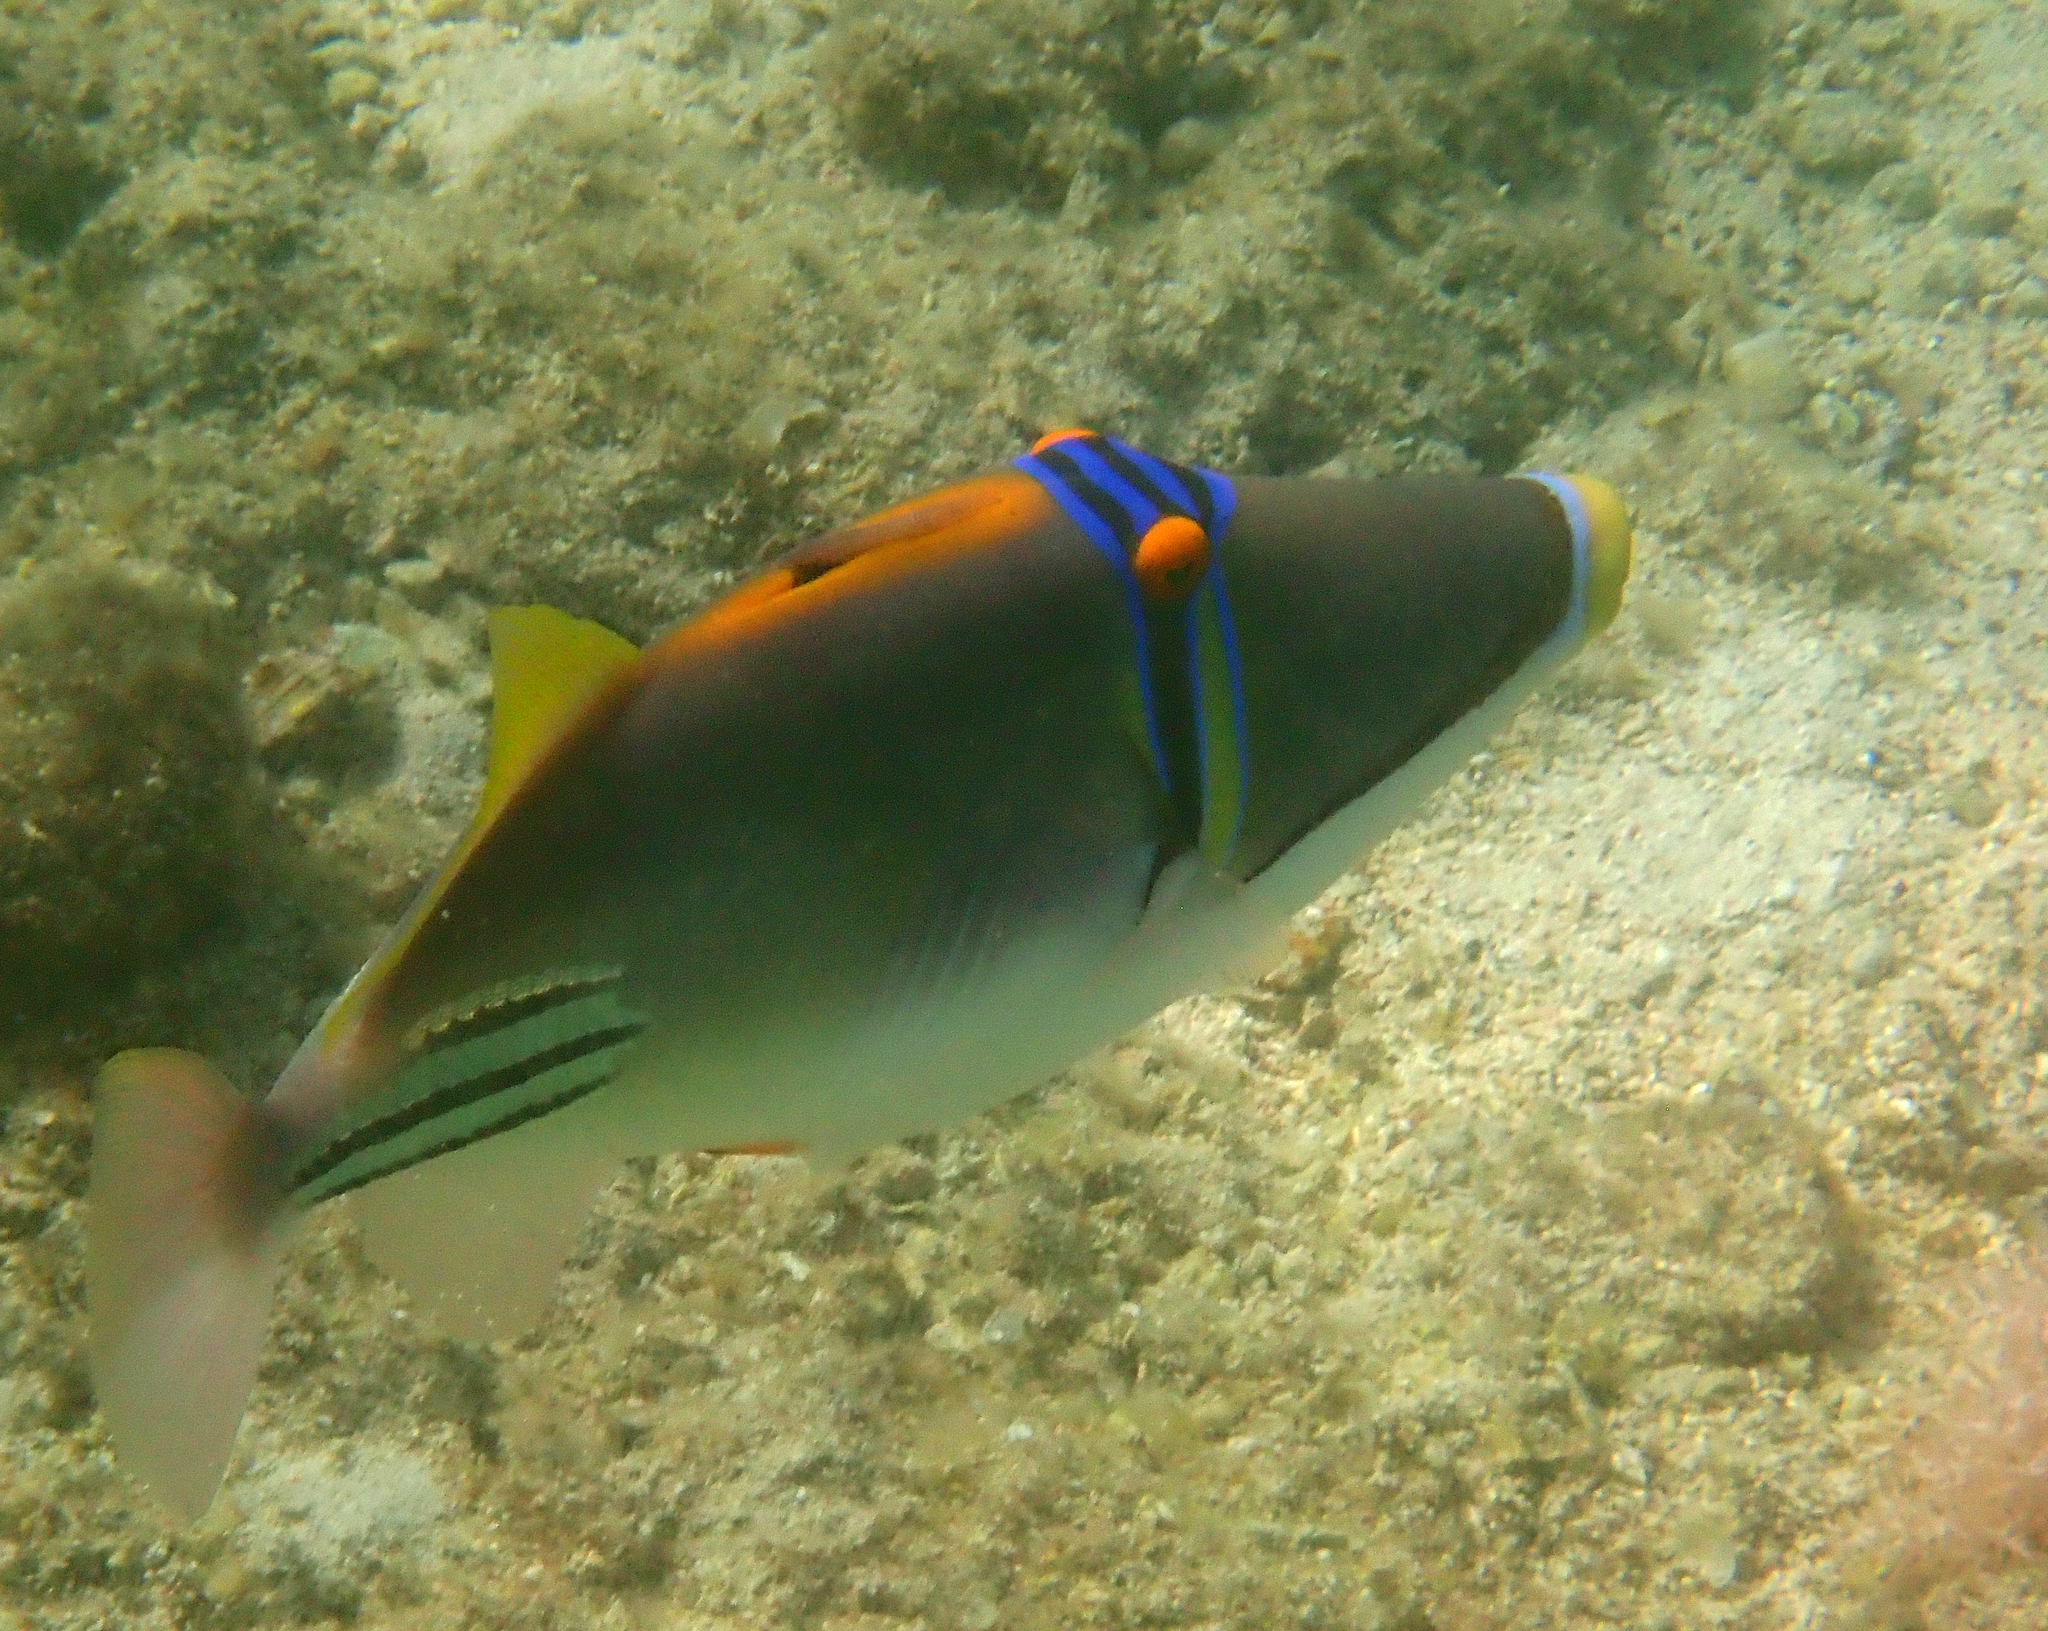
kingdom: Animalia
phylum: Chordata
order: Tetraodontiformes
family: Balistidae
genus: Rhinecanthus
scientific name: Rhinecanthus assasi
